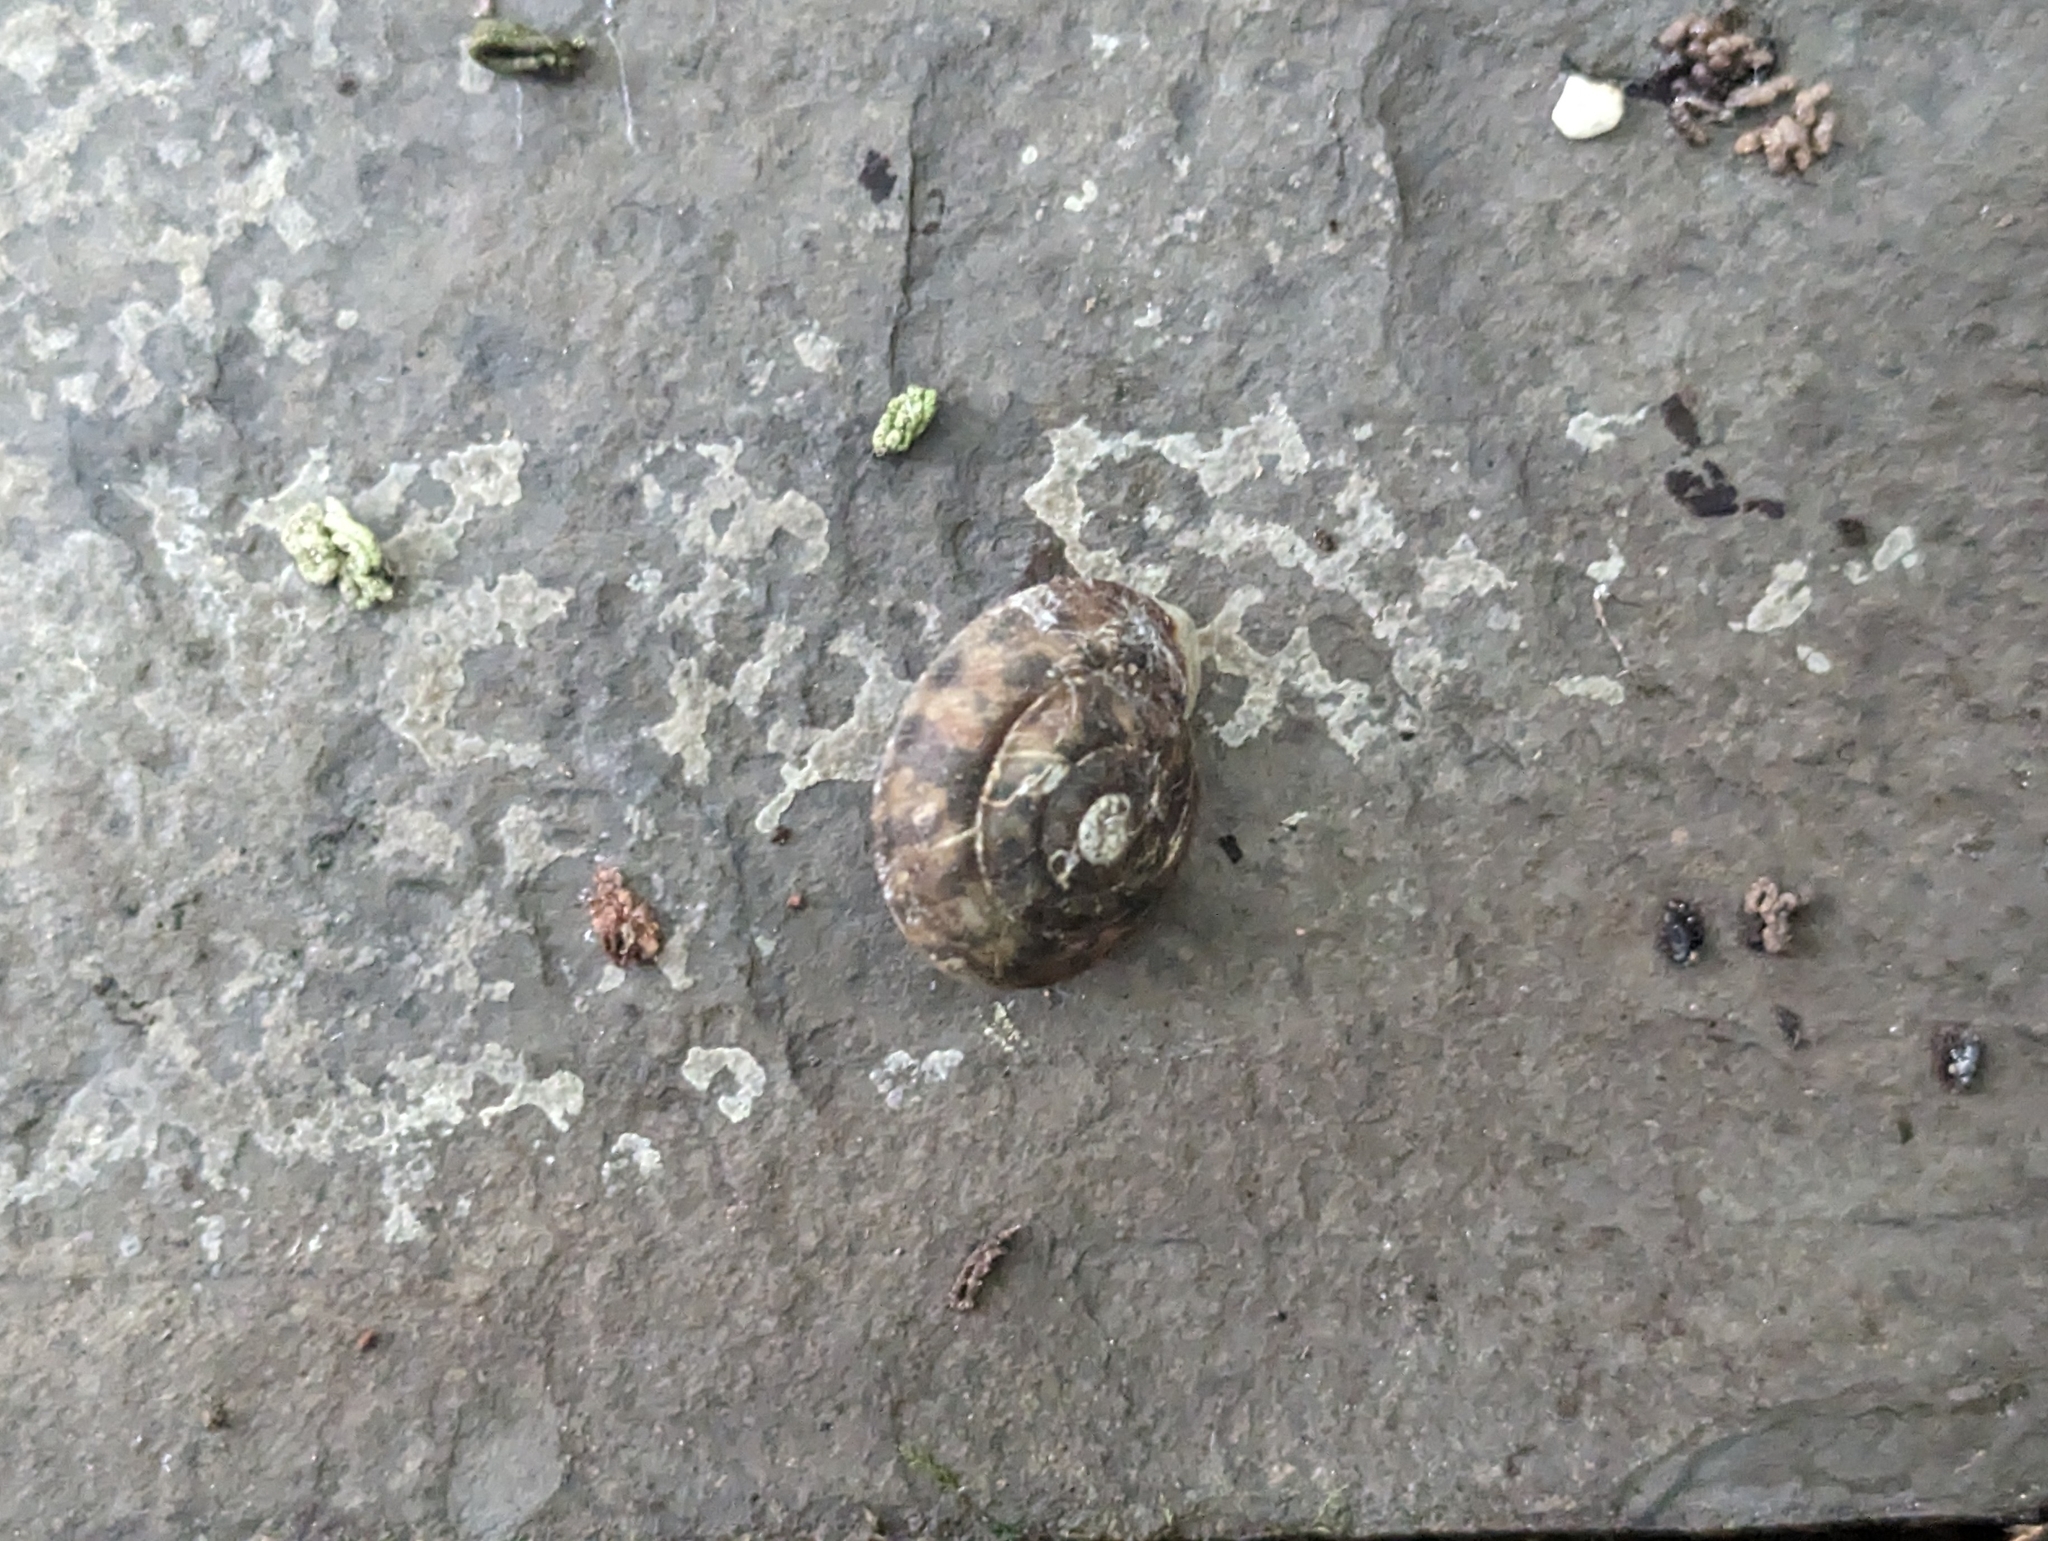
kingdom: Animalia
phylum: Mollusca
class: Gastropoda
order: Stylommatophora
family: Helicidae
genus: Helicigona
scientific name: Helicigona lapicida
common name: Lapidary snail
